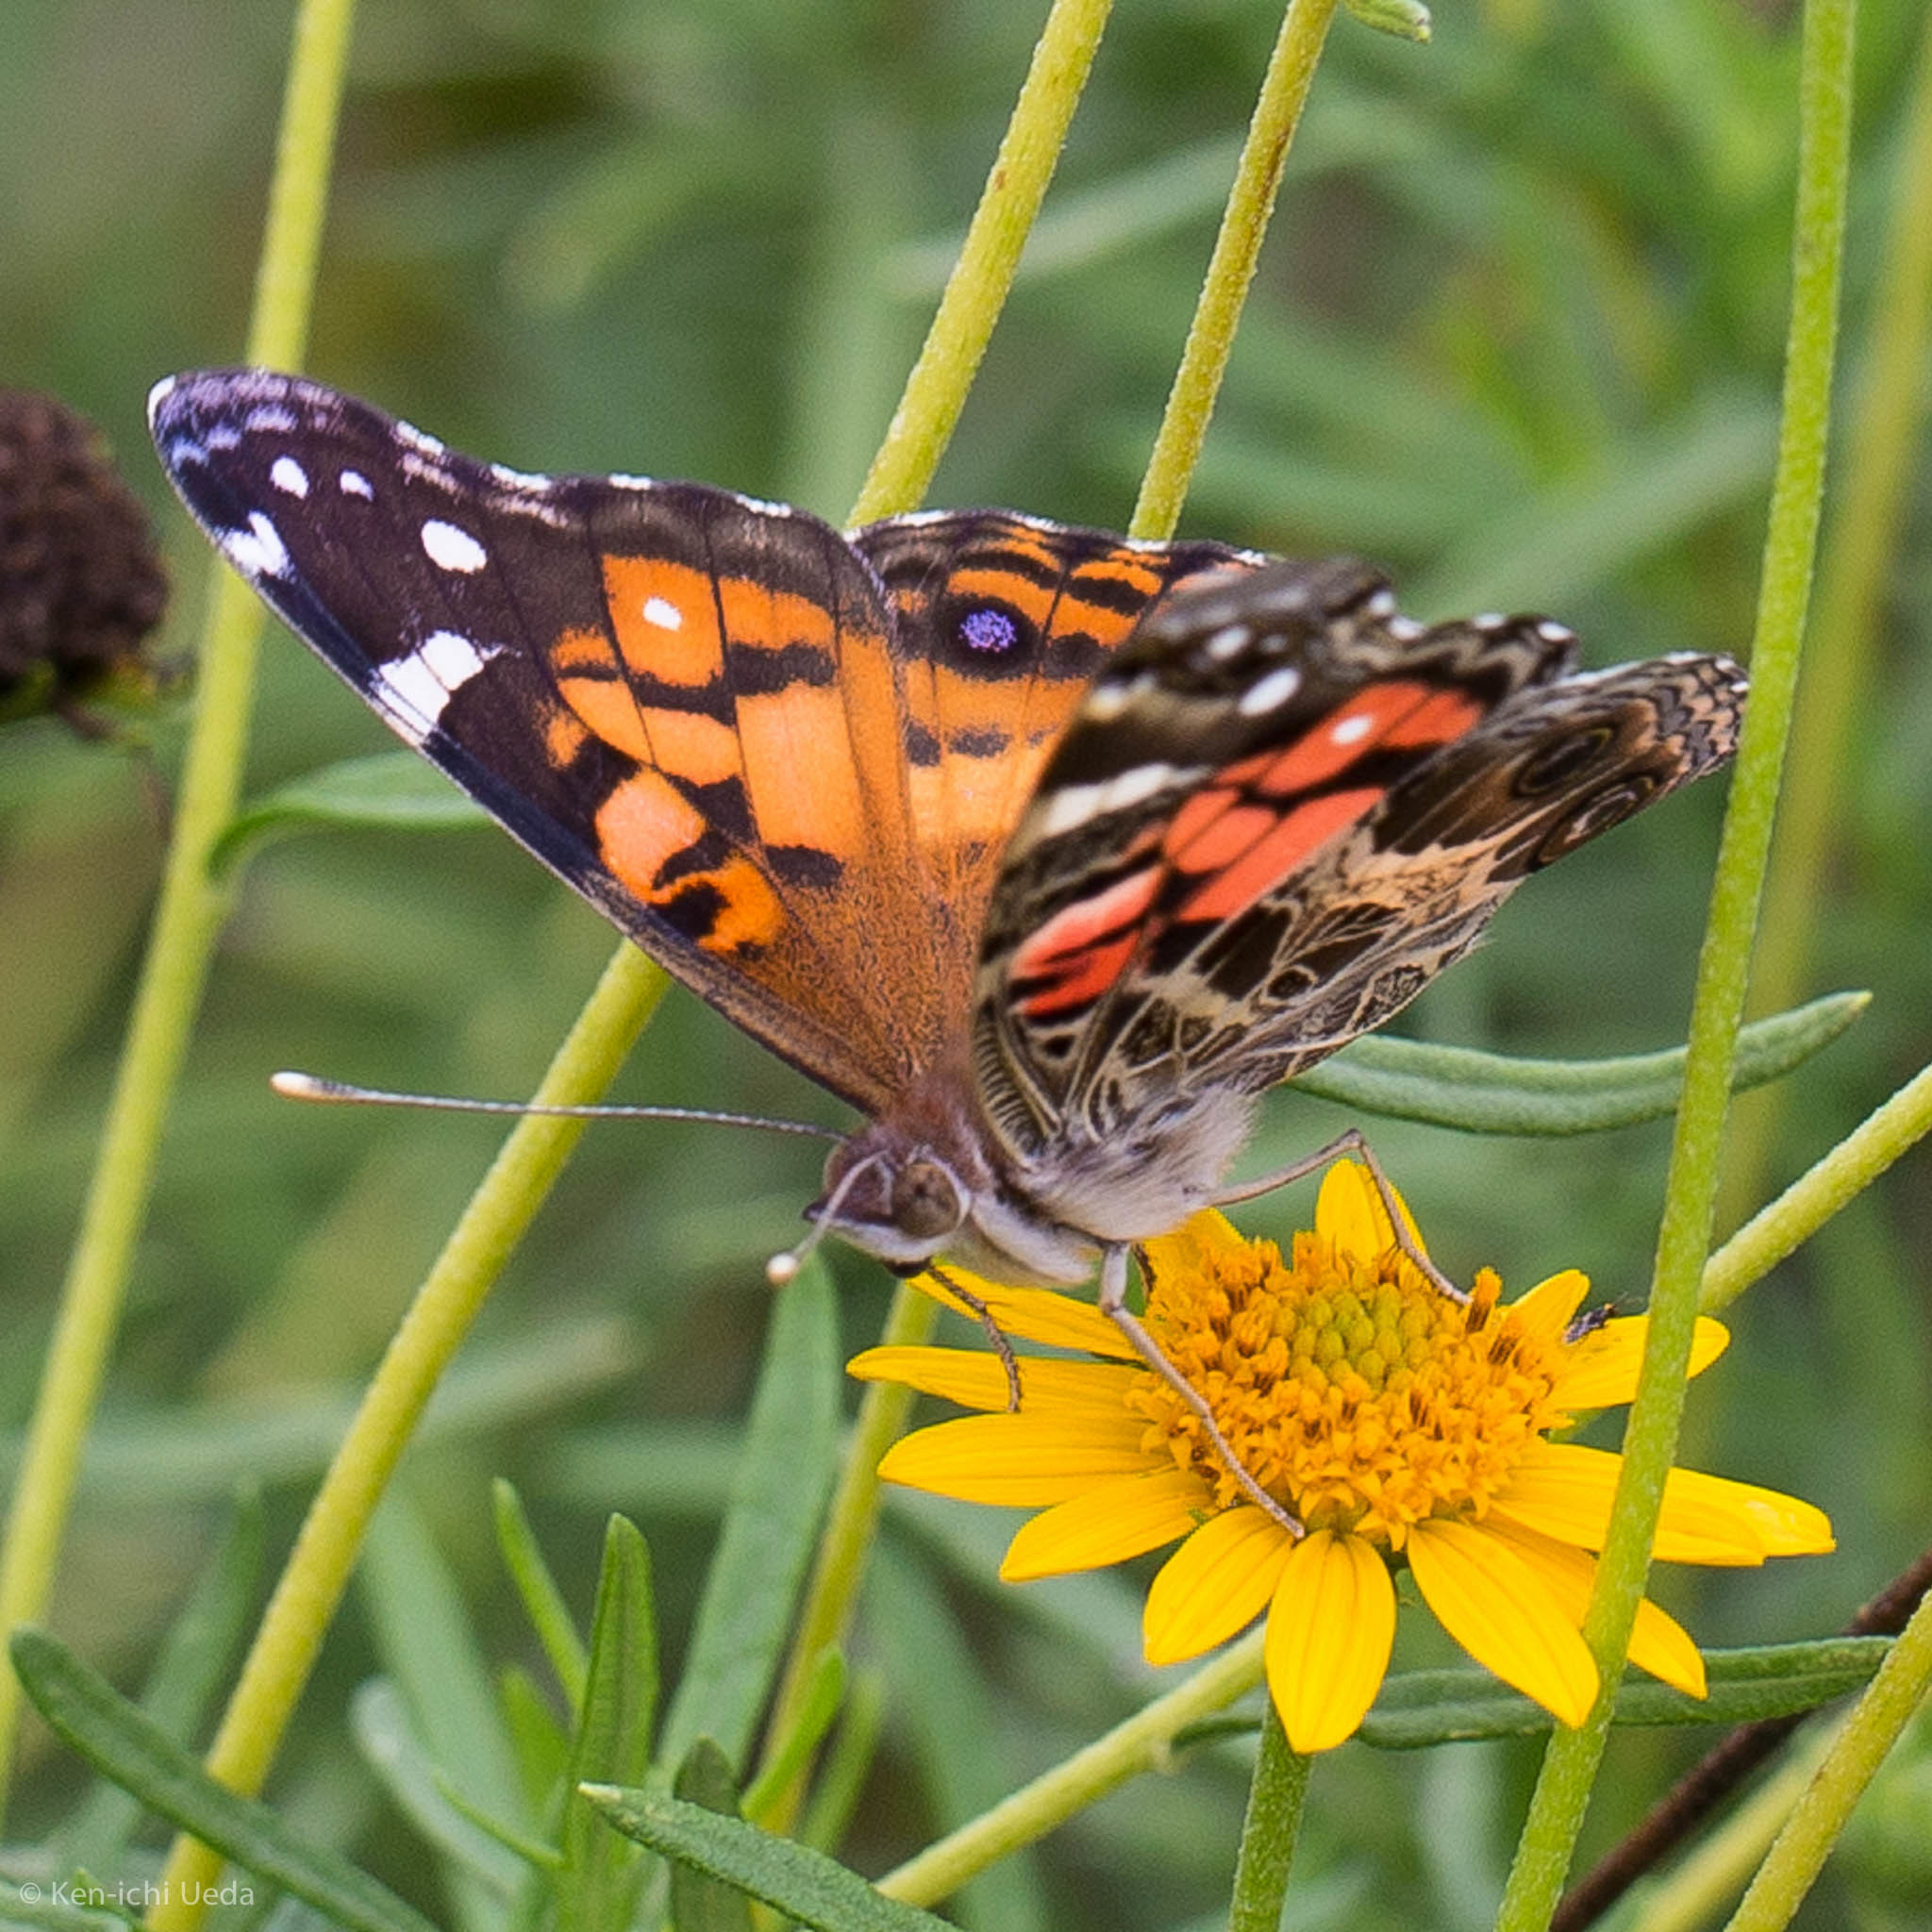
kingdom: Animalia
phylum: Arthropoda
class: Insecta
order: Lepidoptera
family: Nymphalidae
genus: Vanessa
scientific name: Vanessa virginiensis
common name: American lady
